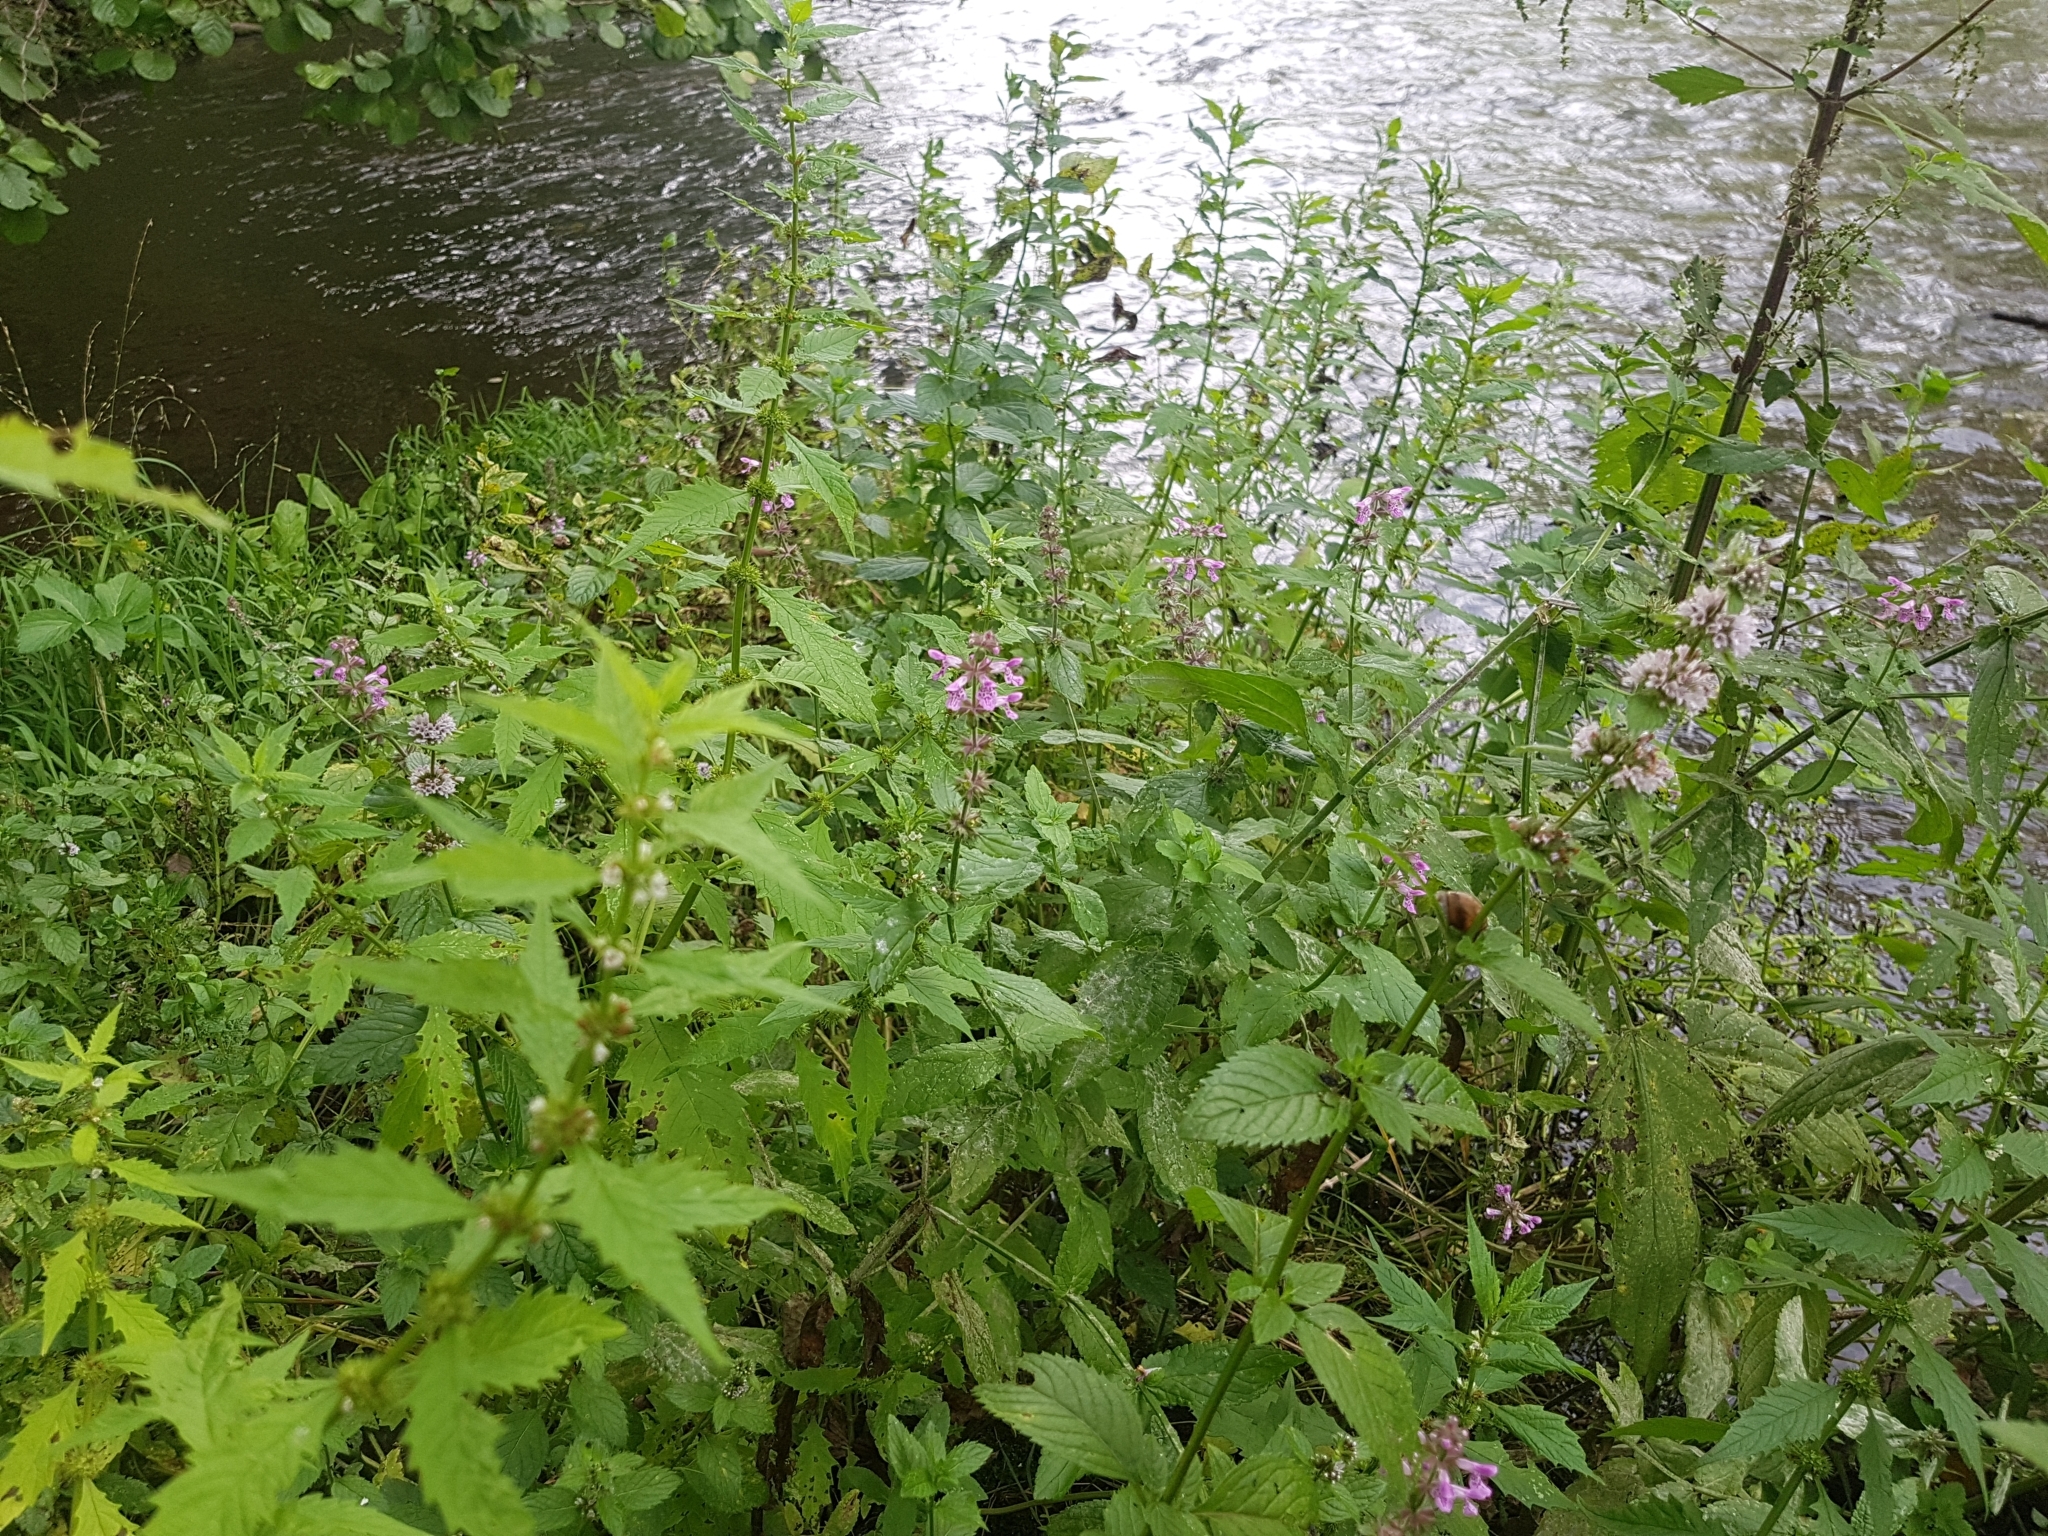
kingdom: Plantae
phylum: Tracheophyta
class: Magnoliopsida
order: Lamiales
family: Lamiaceae
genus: Stachys
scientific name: Stachys palustris
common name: Marsh woundwort
